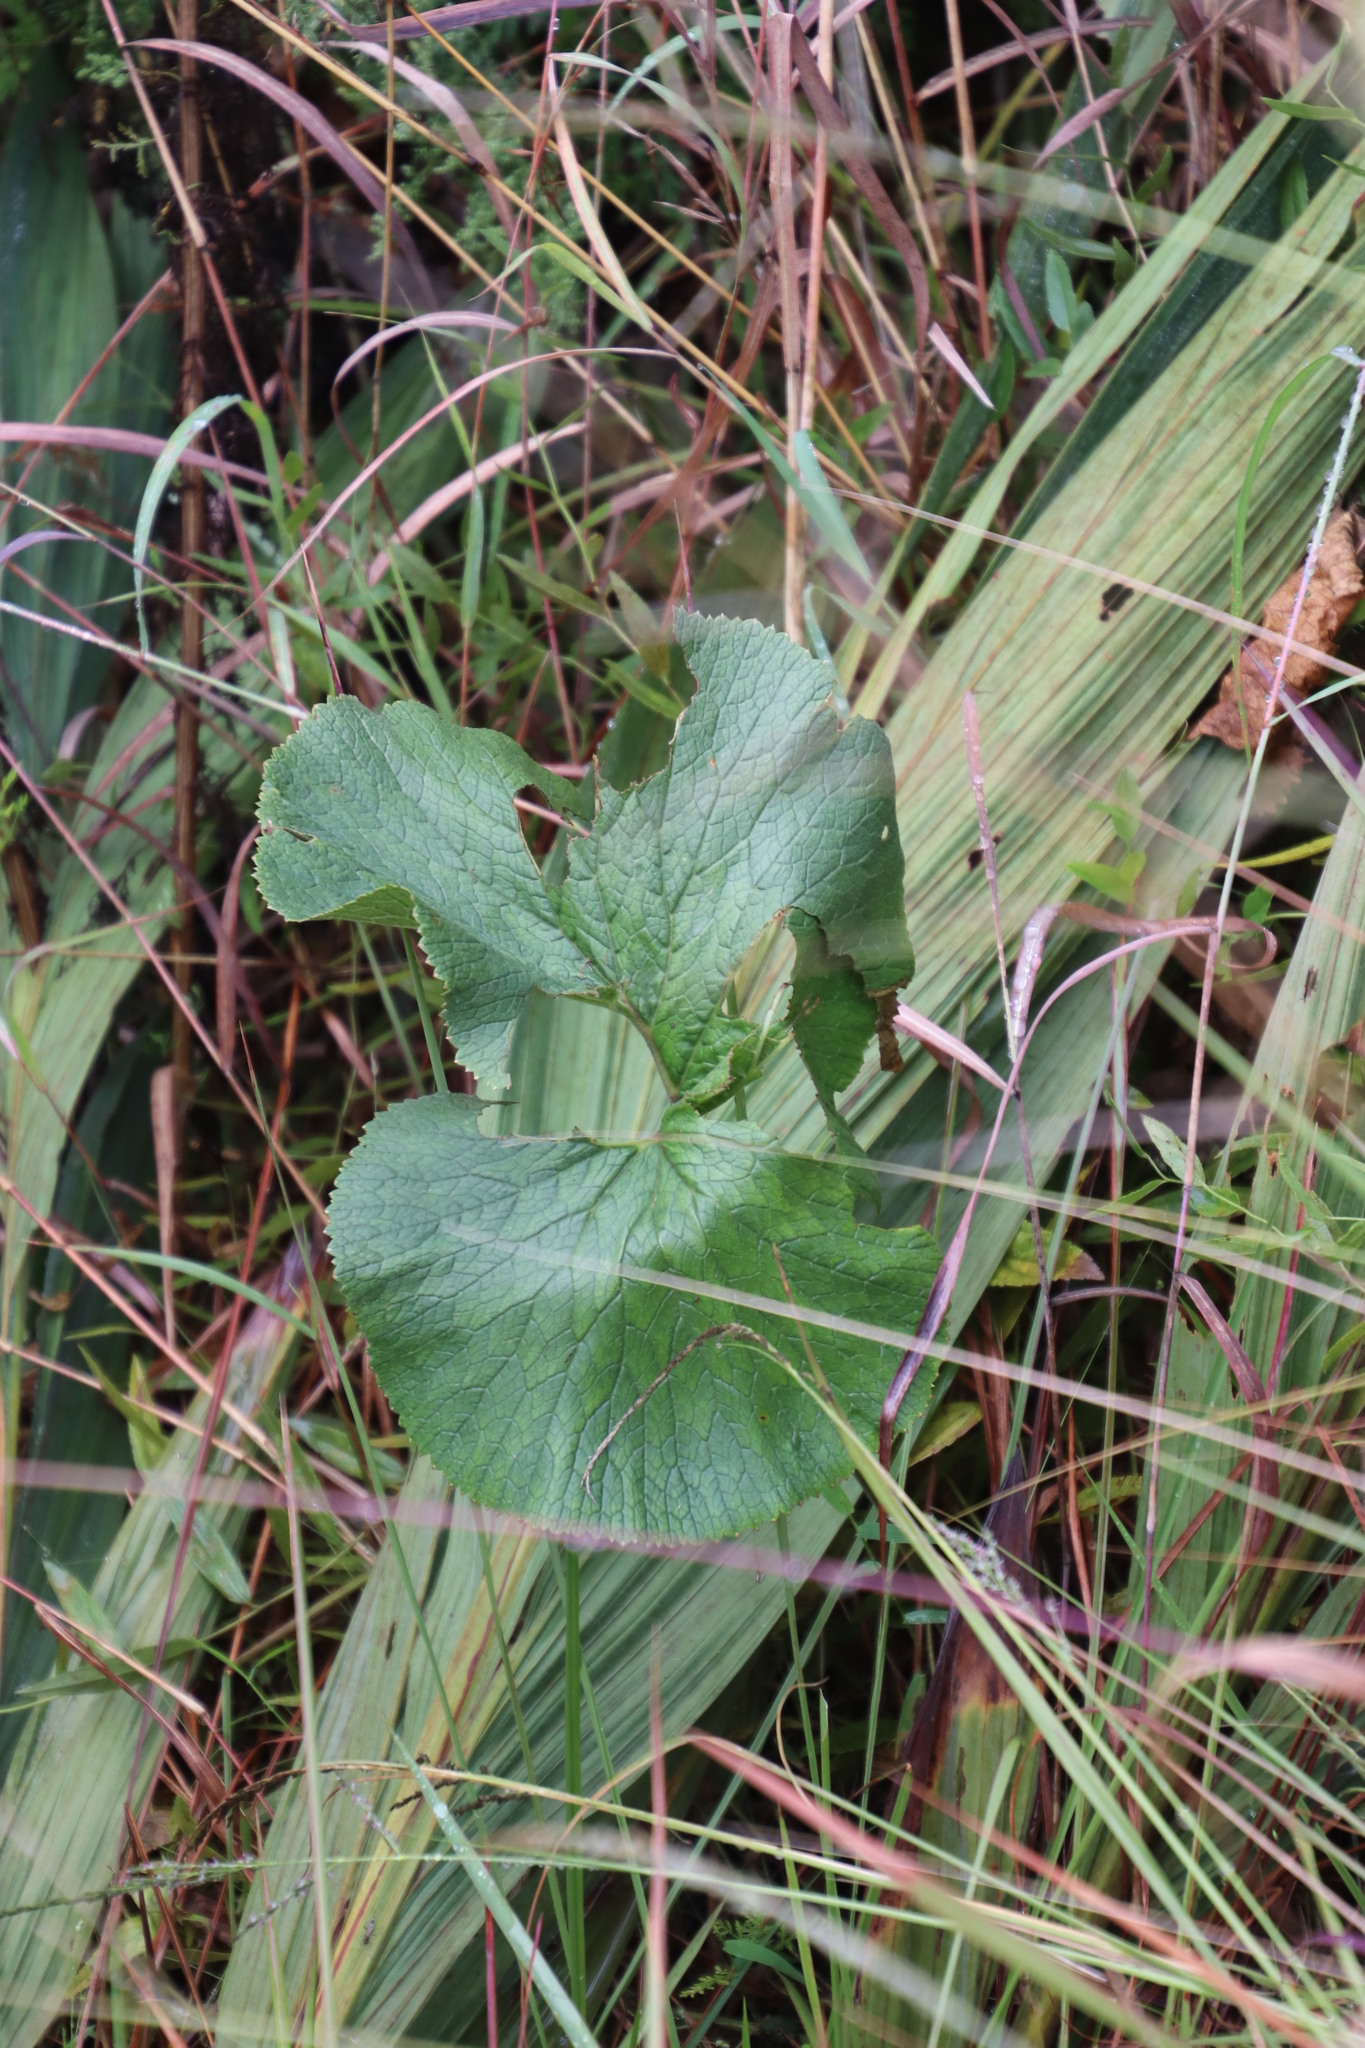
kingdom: Plantae
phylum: Tracheophyta
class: Magnoliopsida
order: Gunnerales
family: Gunneraceae
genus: Gunnera
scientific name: Gunnera perpensa
